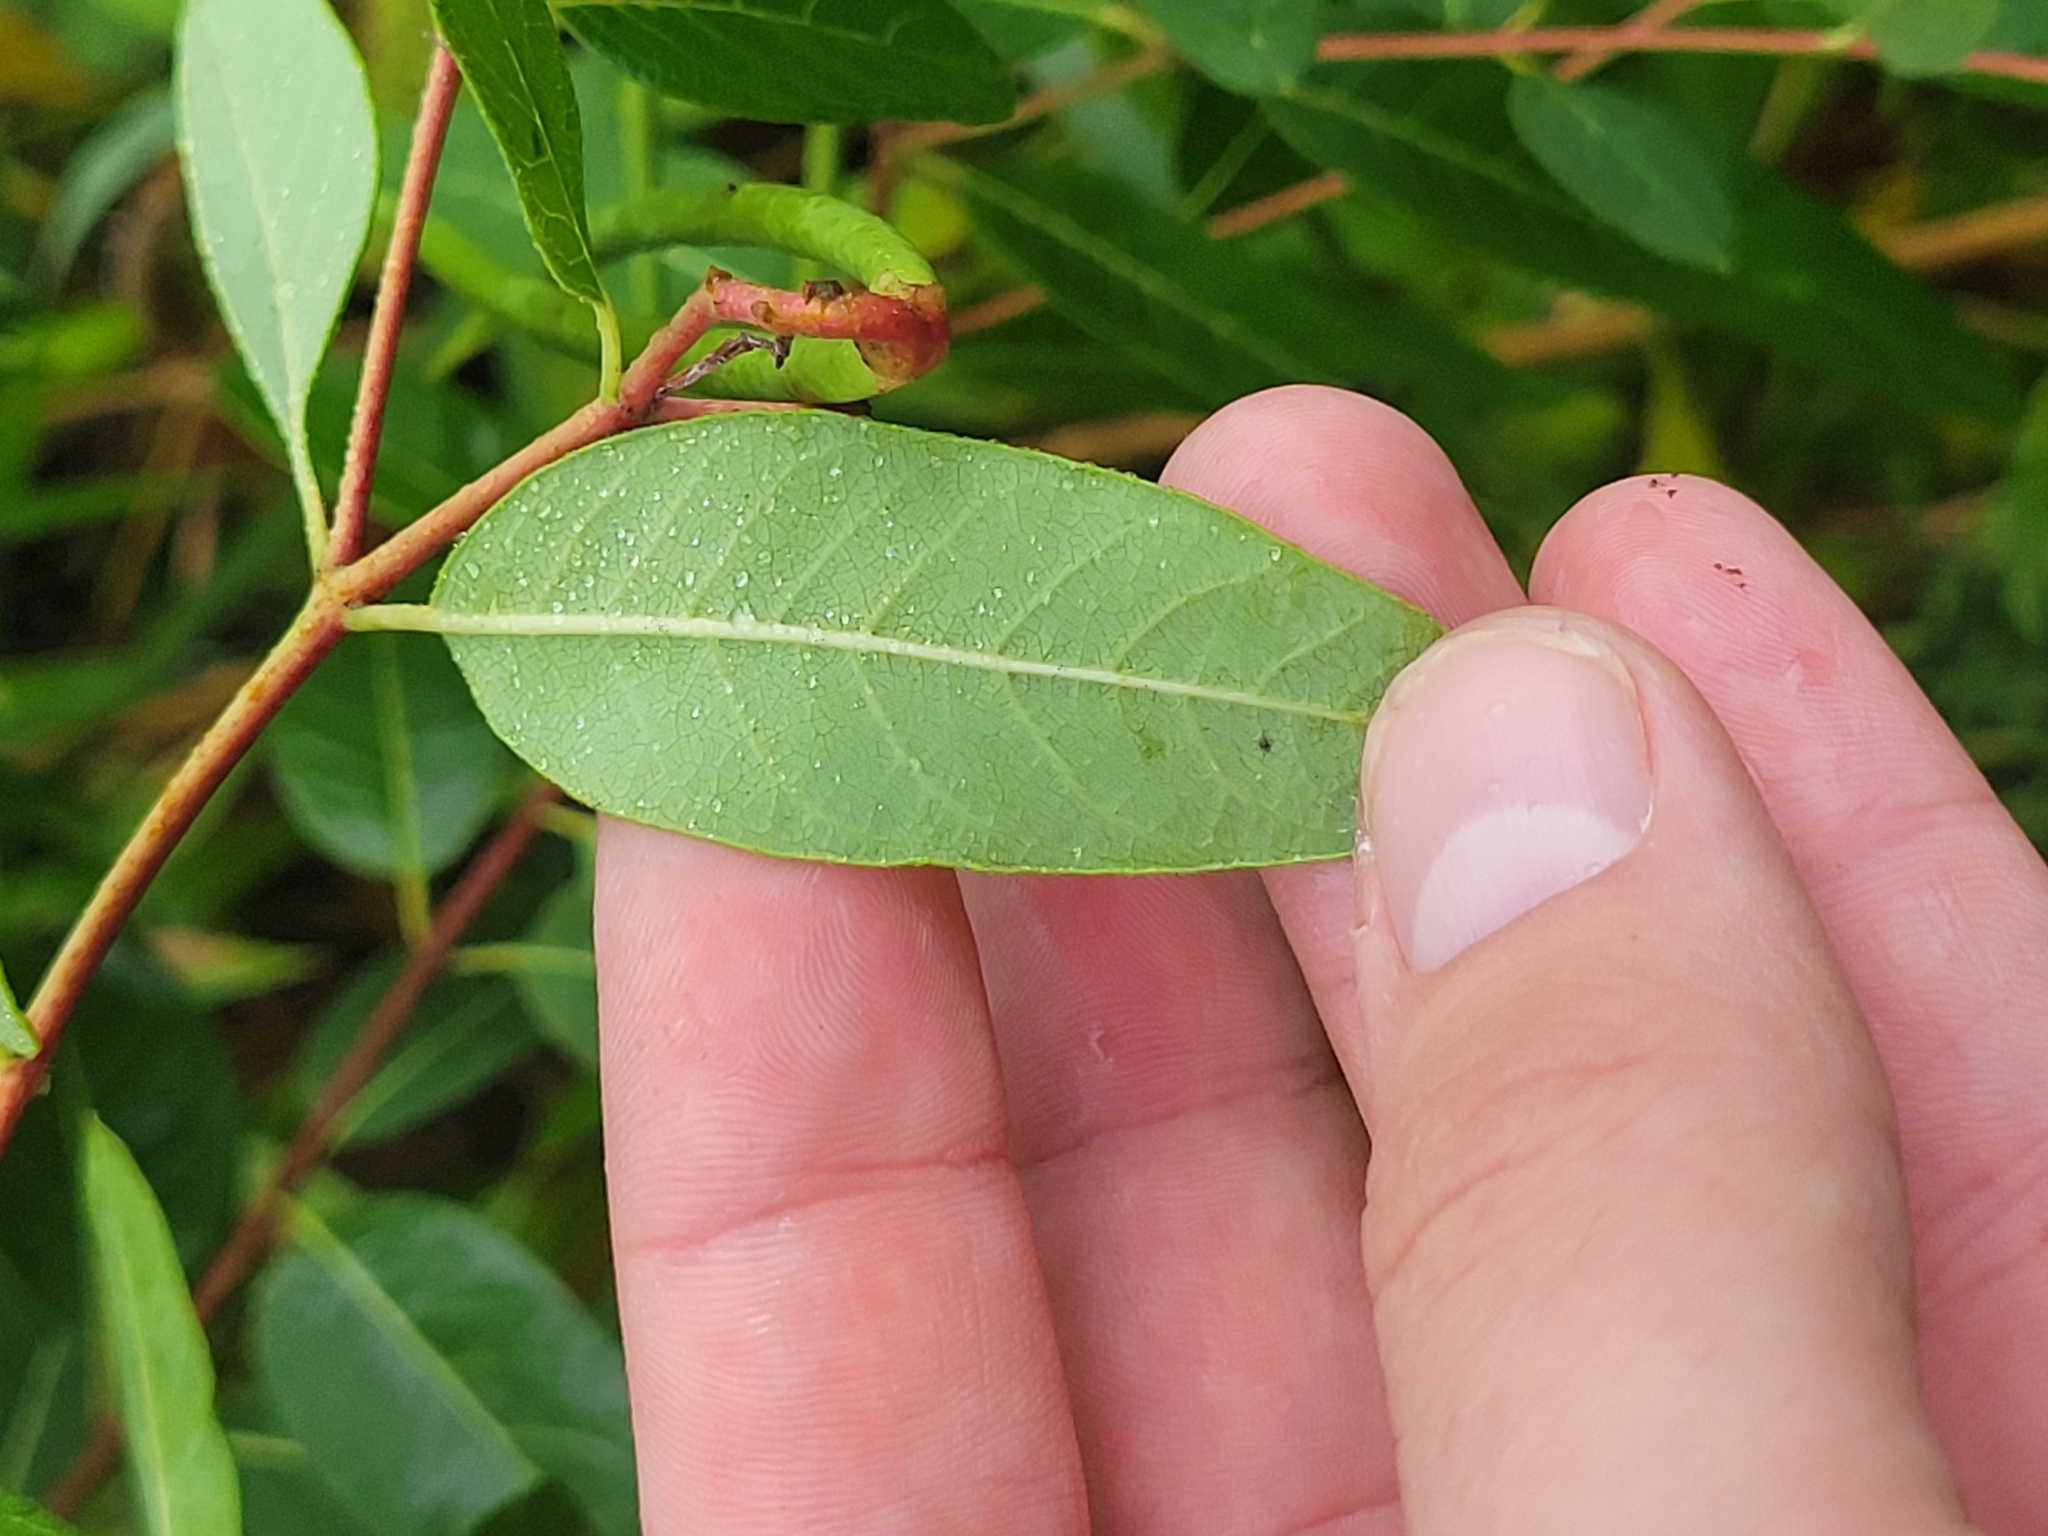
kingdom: Plantae
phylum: Tracheophyta
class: Magnoliopsida
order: Gentianales
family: Apocynaceae
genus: Apocynum
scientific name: Apocynum cannabinum
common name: Hemp dogbane
